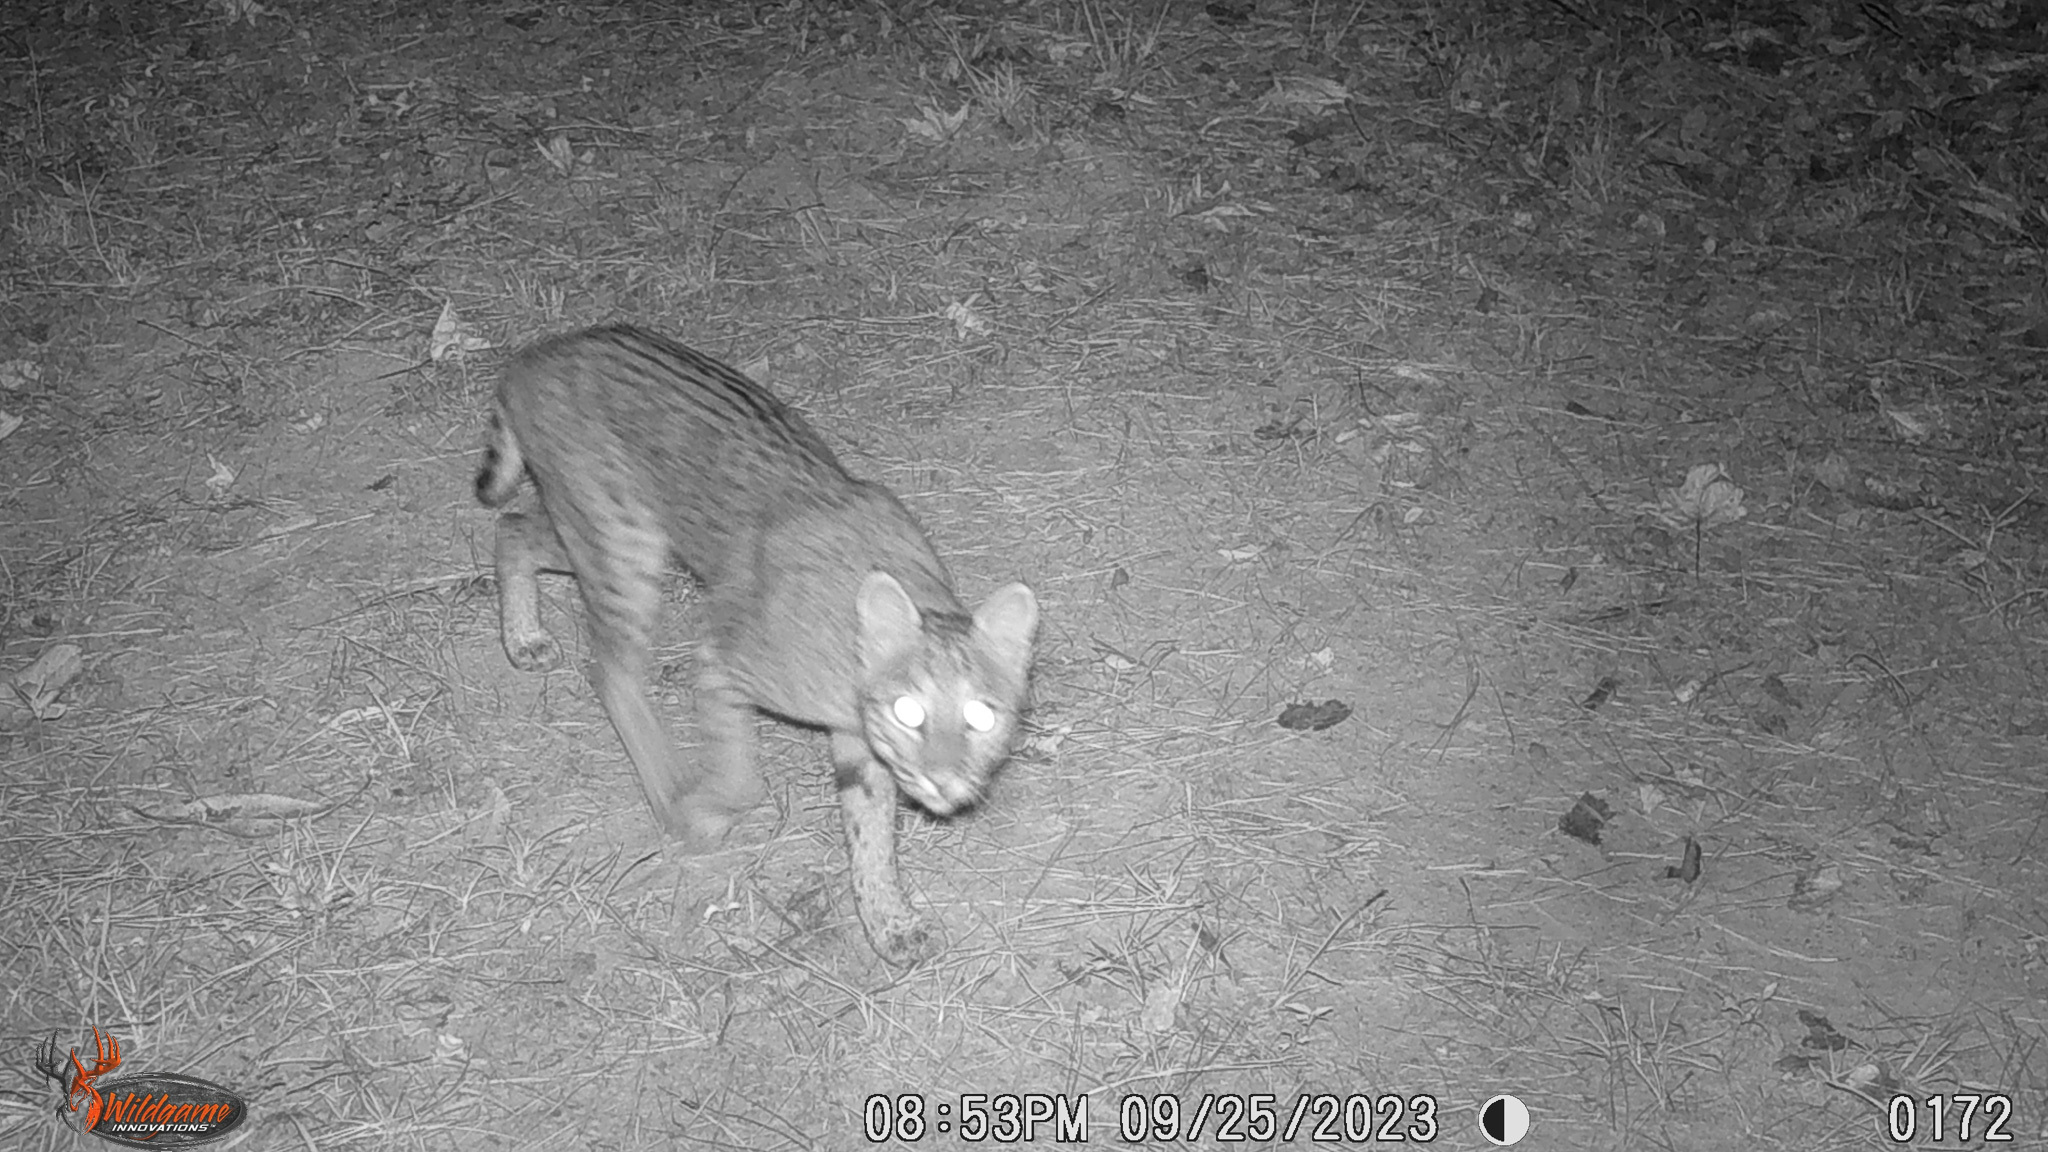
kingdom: Animalia
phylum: Chordata
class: Mammalia
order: Carnivora
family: Felidae
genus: Lynx
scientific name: Lynx rufus
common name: Bobcat
